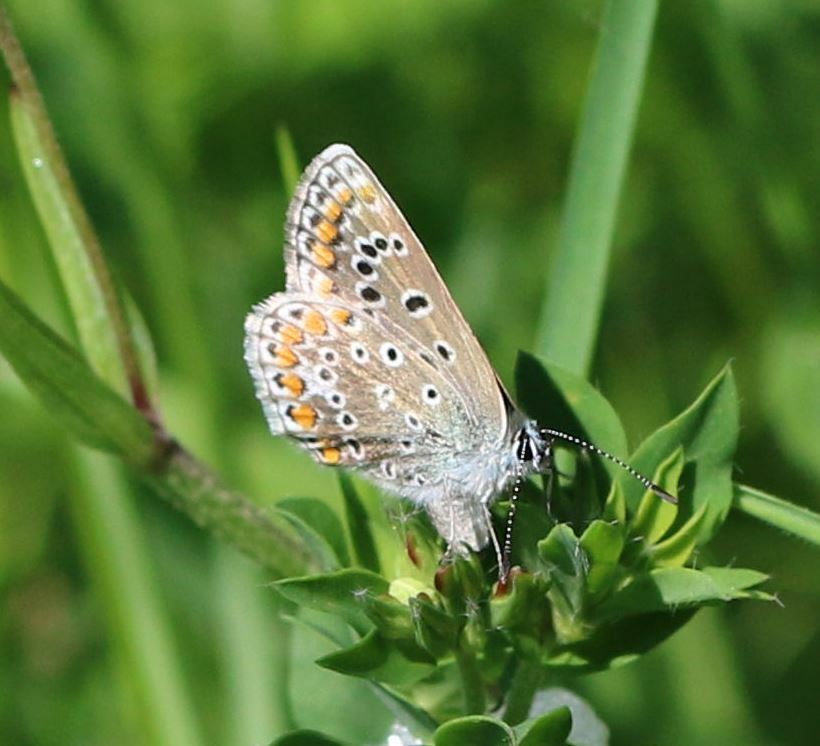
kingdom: Animalia
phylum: Arthropoda
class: Insecta
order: Lepidoptera
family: Lycaenidae
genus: Polyommatus
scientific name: Polyommatus icarus
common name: Common blue
